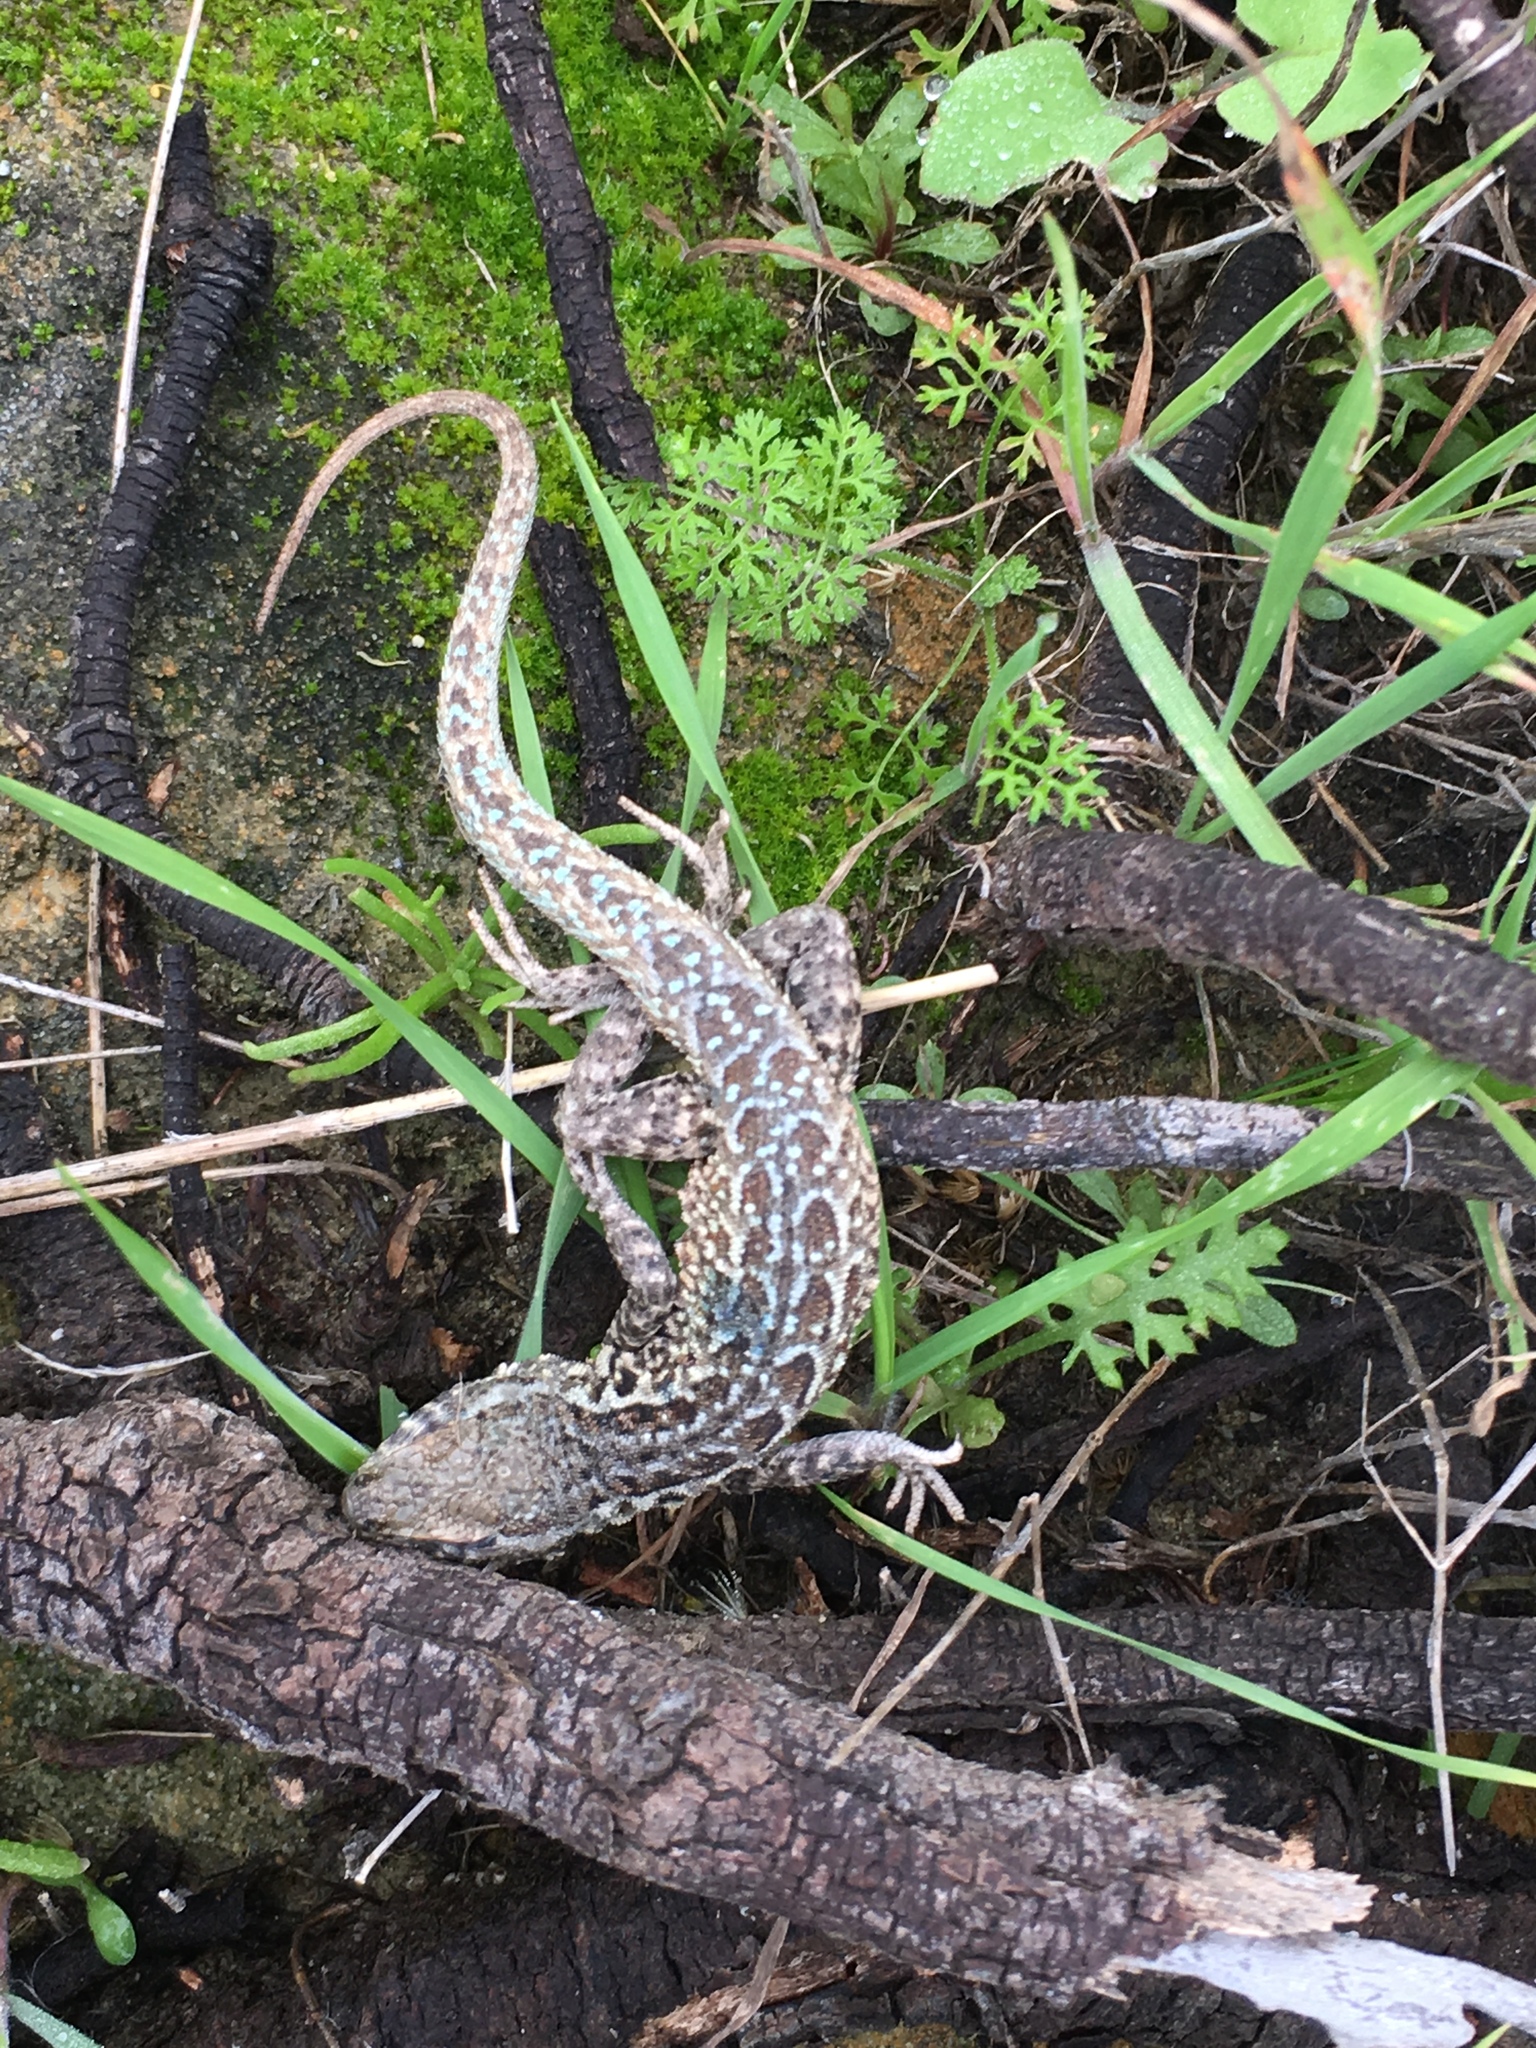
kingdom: Animalia
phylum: Chordata
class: Squamata
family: Phrynosomatidae
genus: Uta
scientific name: Uta stansburiana
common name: Side-blotched lizard
